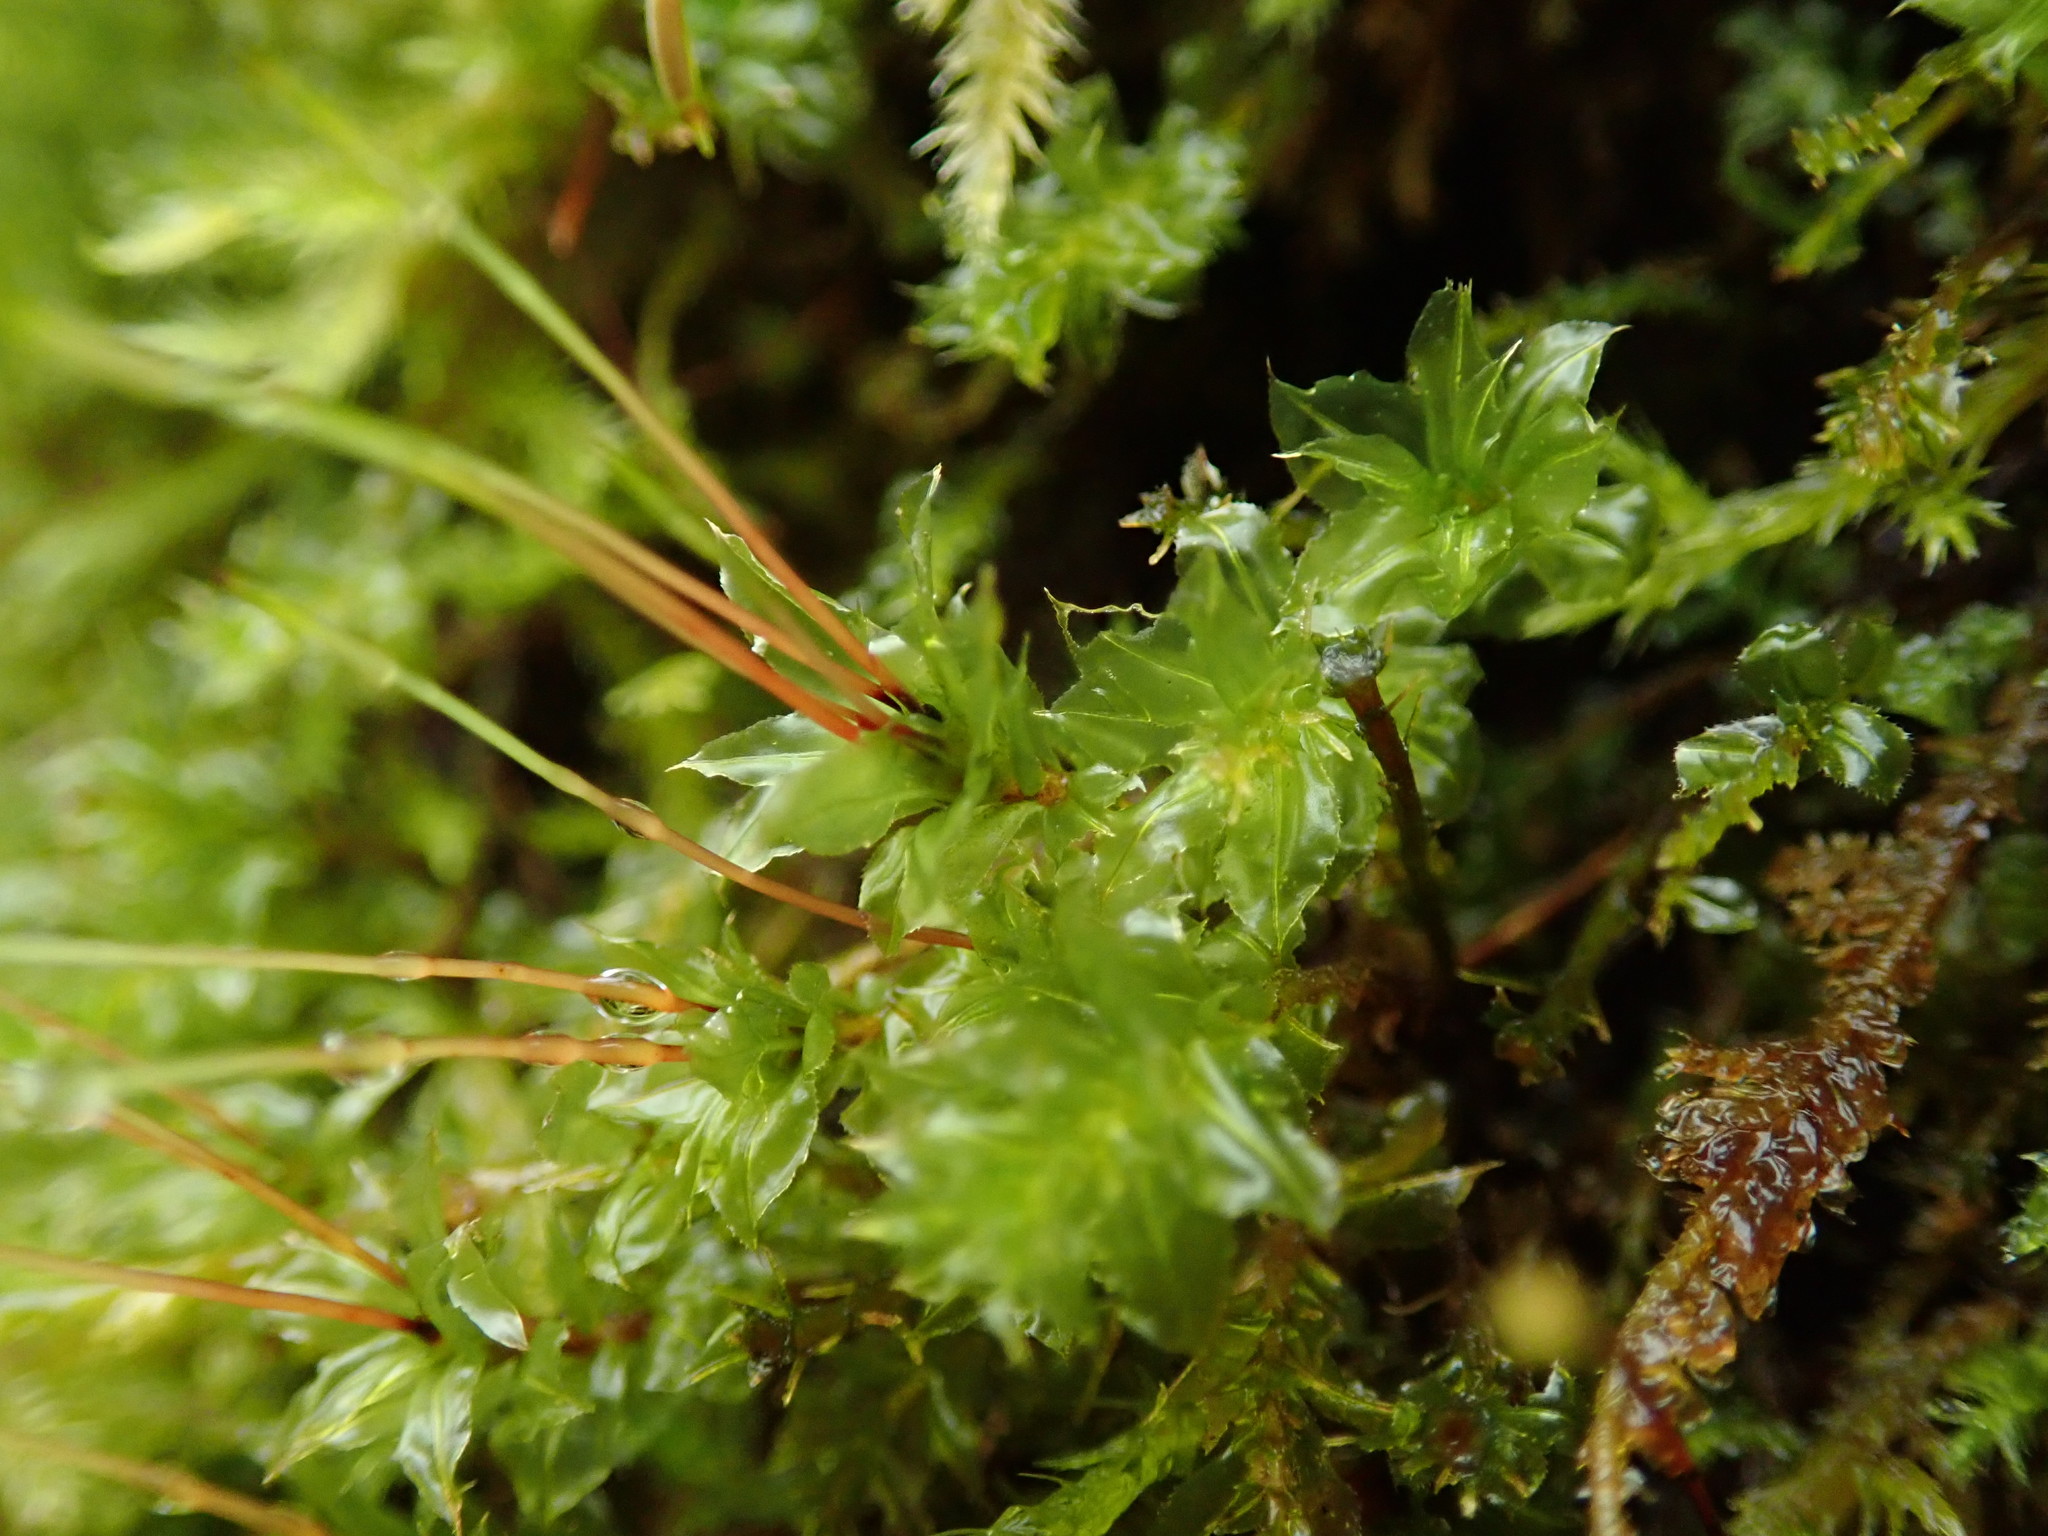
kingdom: Plantae
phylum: Bryophyta
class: Bryopsida
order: Bryales
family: Mniaceae
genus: Plagiomnium
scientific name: Plagiomnium venustum
